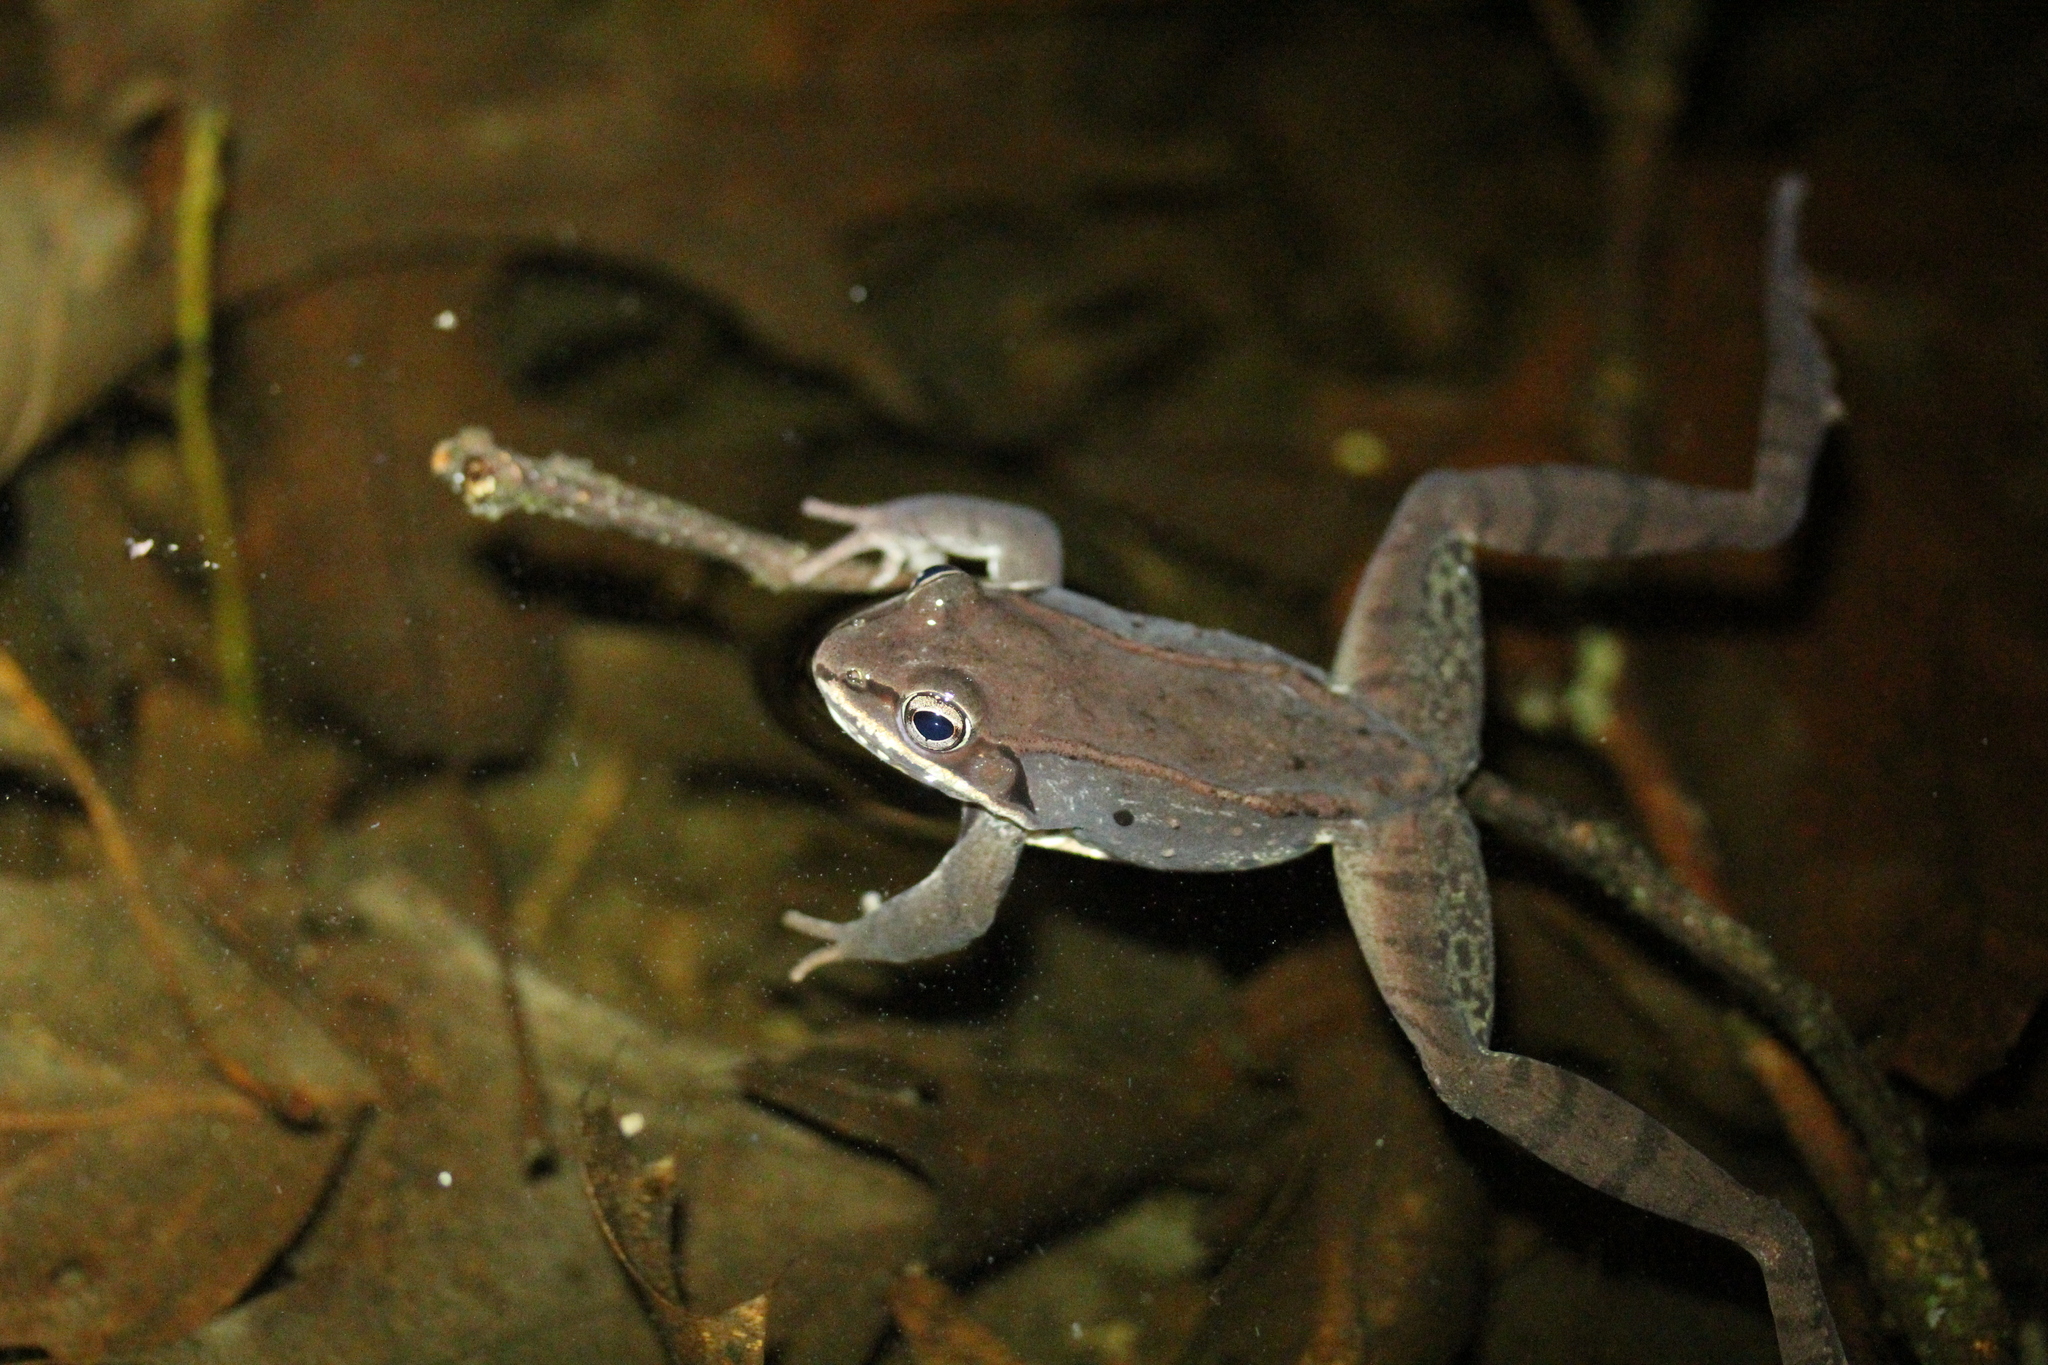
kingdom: Animalia
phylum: Chordata
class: Amphibia
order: Anura
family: Ranidae
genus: Lithobates
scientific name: Lithobates sylvaticus
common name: Wood frog
